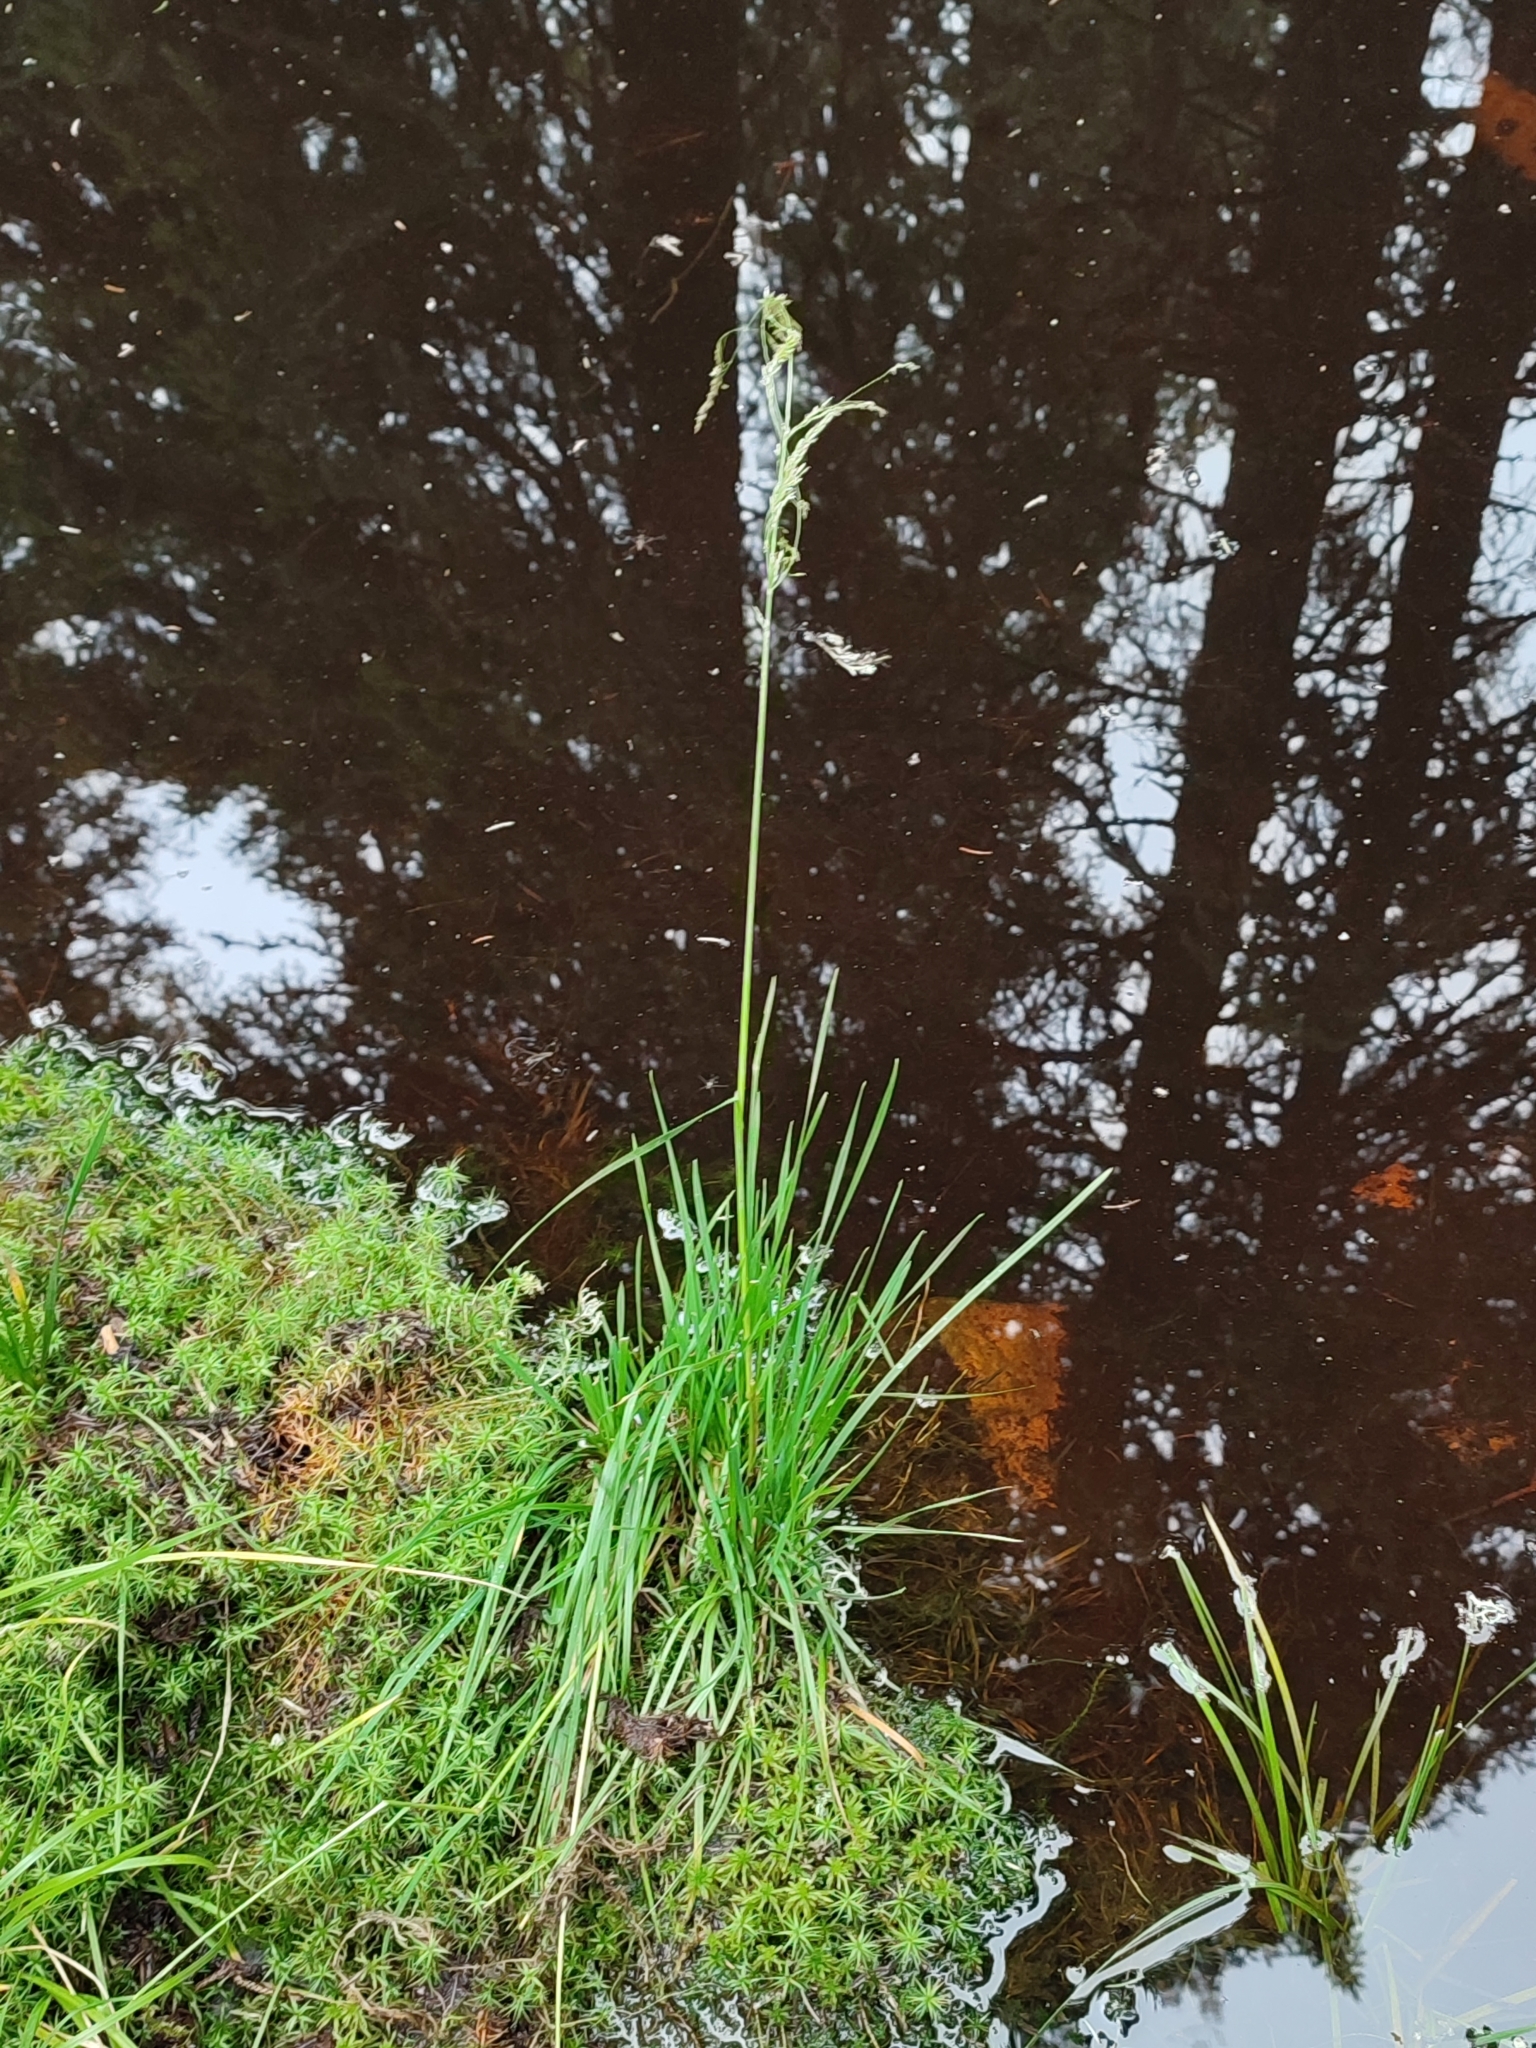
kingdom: Plantae
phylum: Tracheophyta
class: Liliopsida
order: Poales
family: Poaceae
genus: Deschampsia
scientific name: Deschampsia cespitosa
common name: Tufted hair-grass
